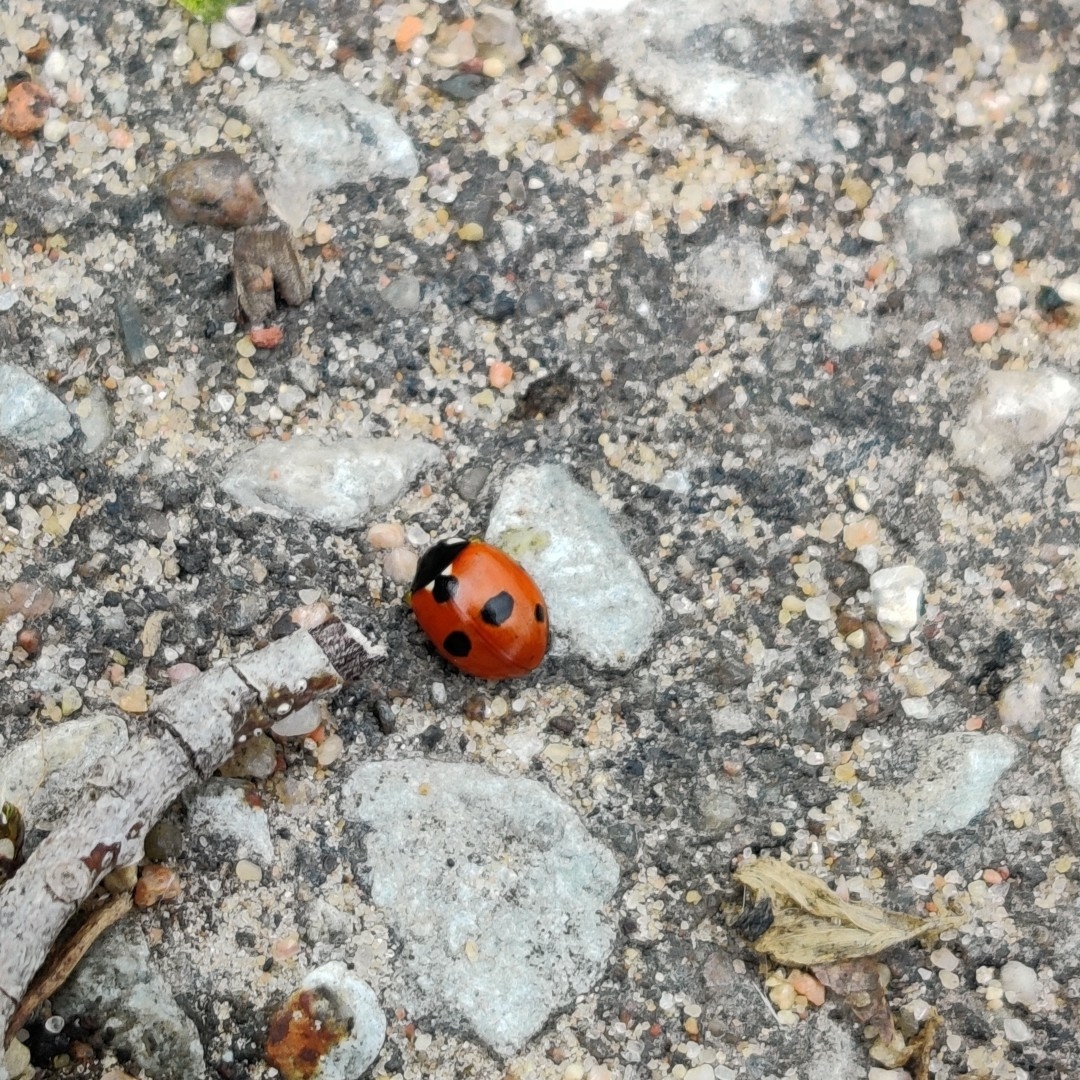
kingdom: Animalia
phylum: Arthropoda
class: Insecta
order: Coleoptera
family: Coccinellidae
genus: Coccinella
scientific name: Coccinella quinquepunctata
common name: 5-spot ladybird
